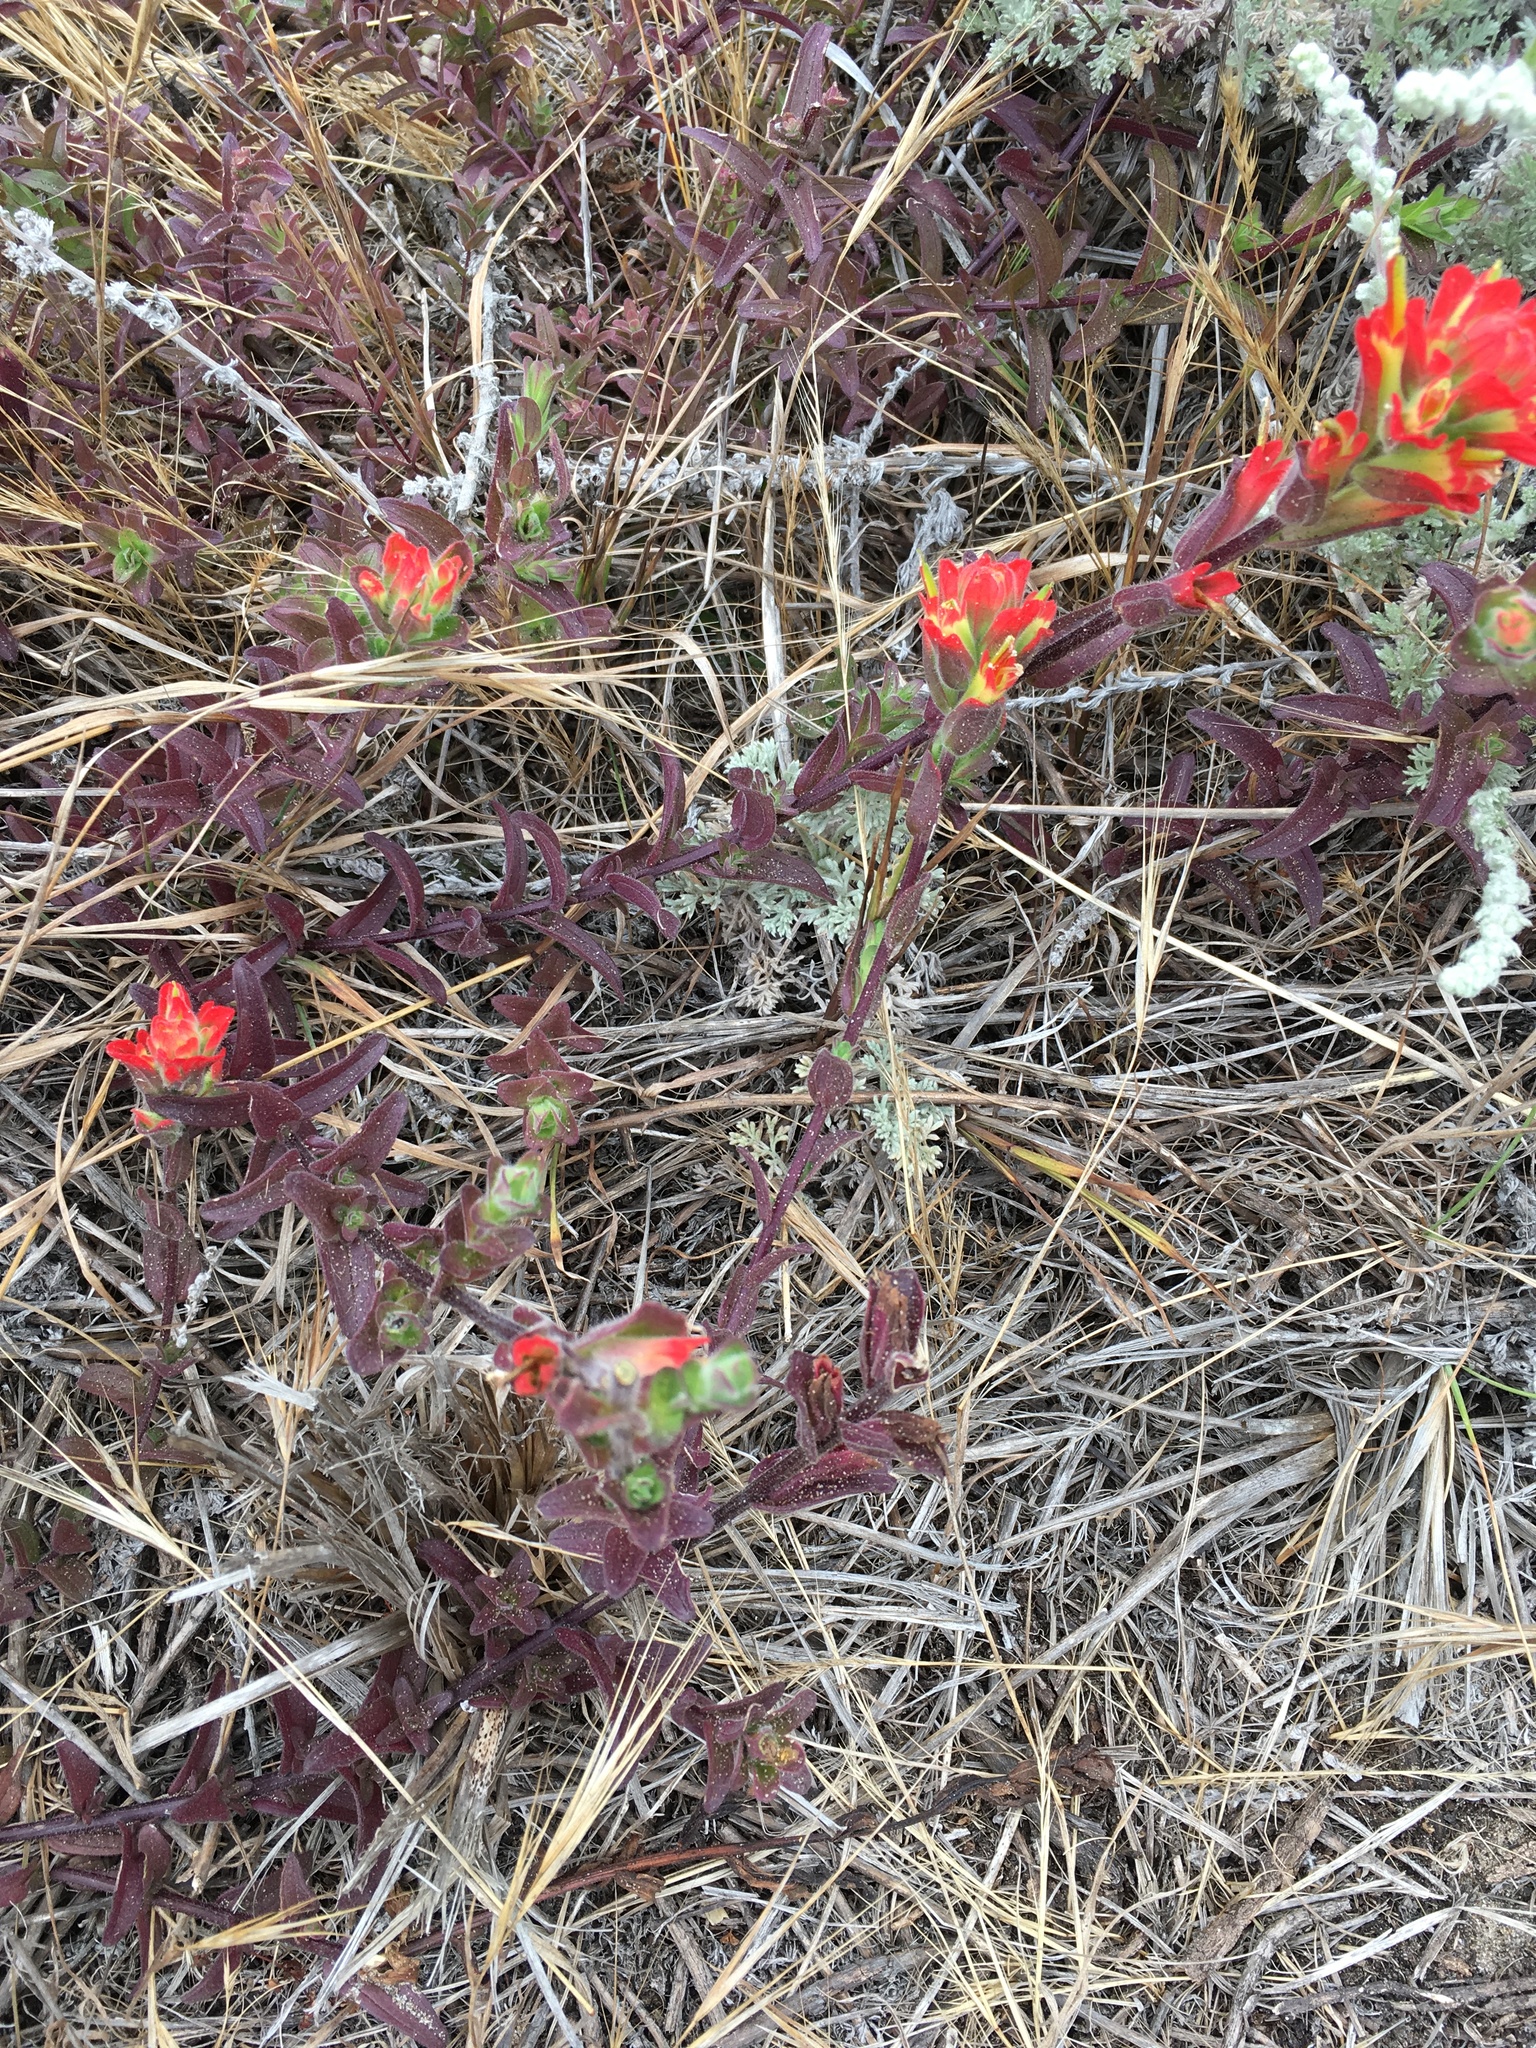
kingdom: Plantae
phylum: Tracheophyta
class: Magnoliopsida
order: Lamiales
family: Orobanchaceae
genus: Castilleja
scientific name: Castilleja affinis
